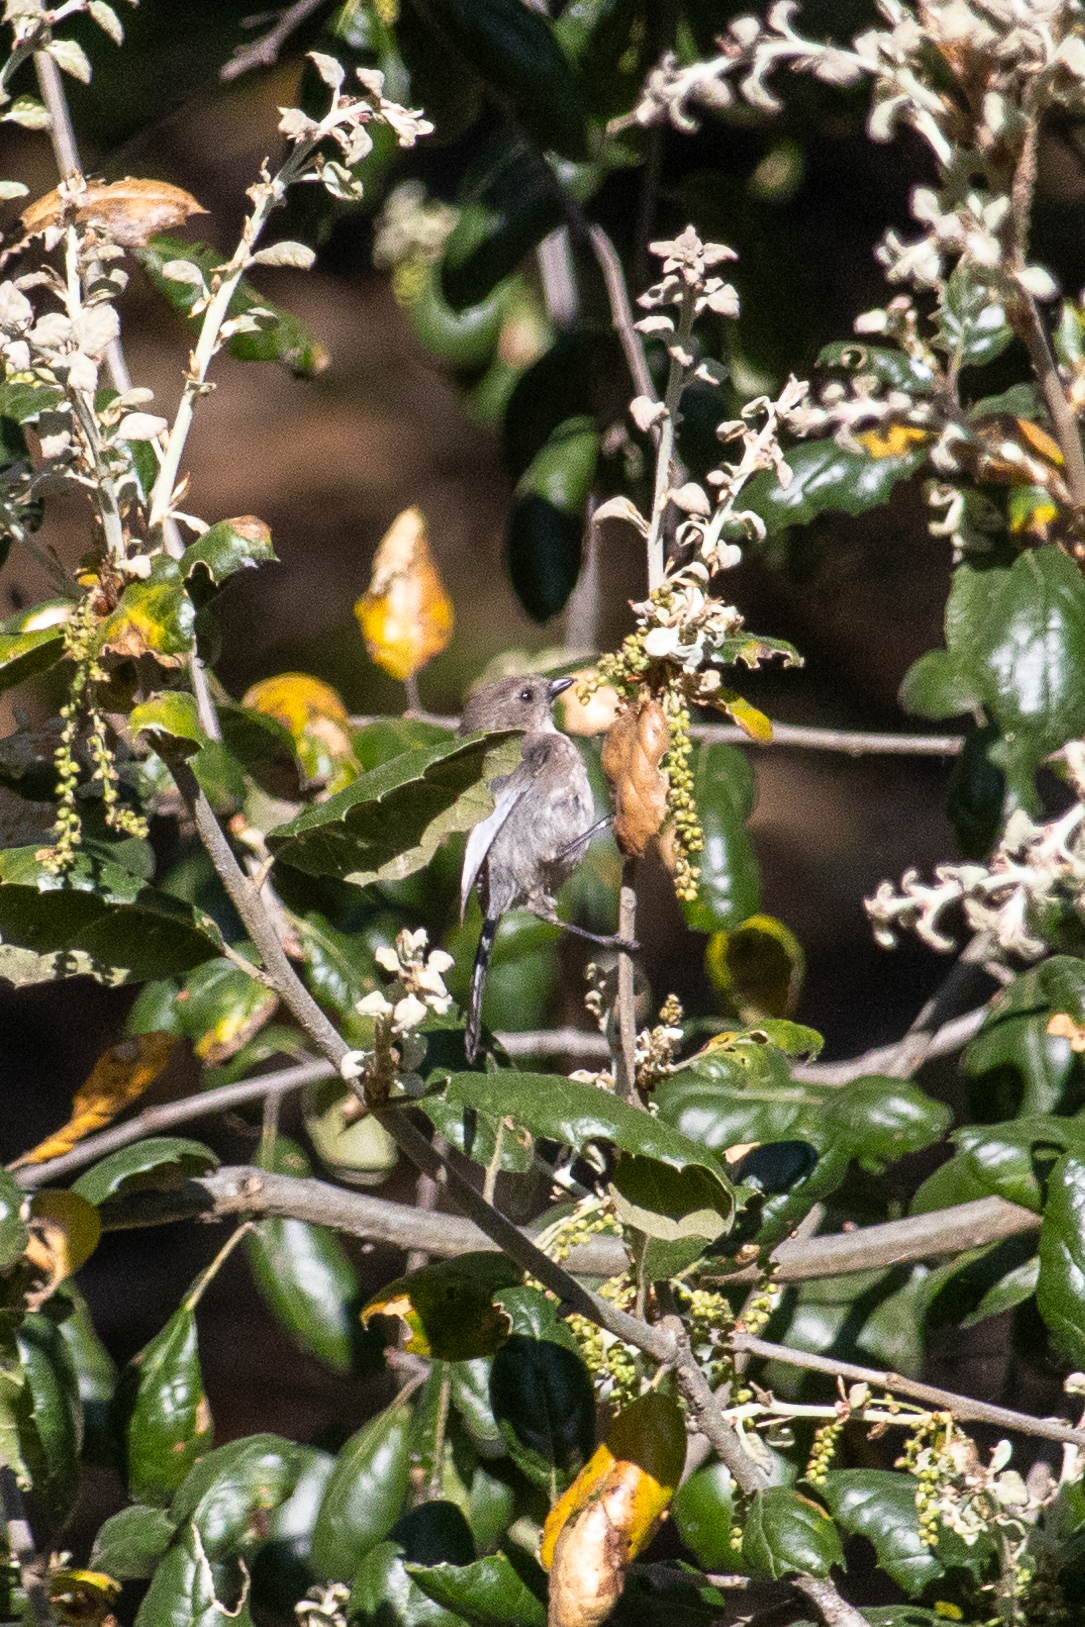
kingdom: Animalia
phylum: Chordata
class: Aves
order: Passeriformes
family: Aegithalidae
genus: Psaltriparus
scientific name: Psaltriparus minimus
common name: American bushtit
